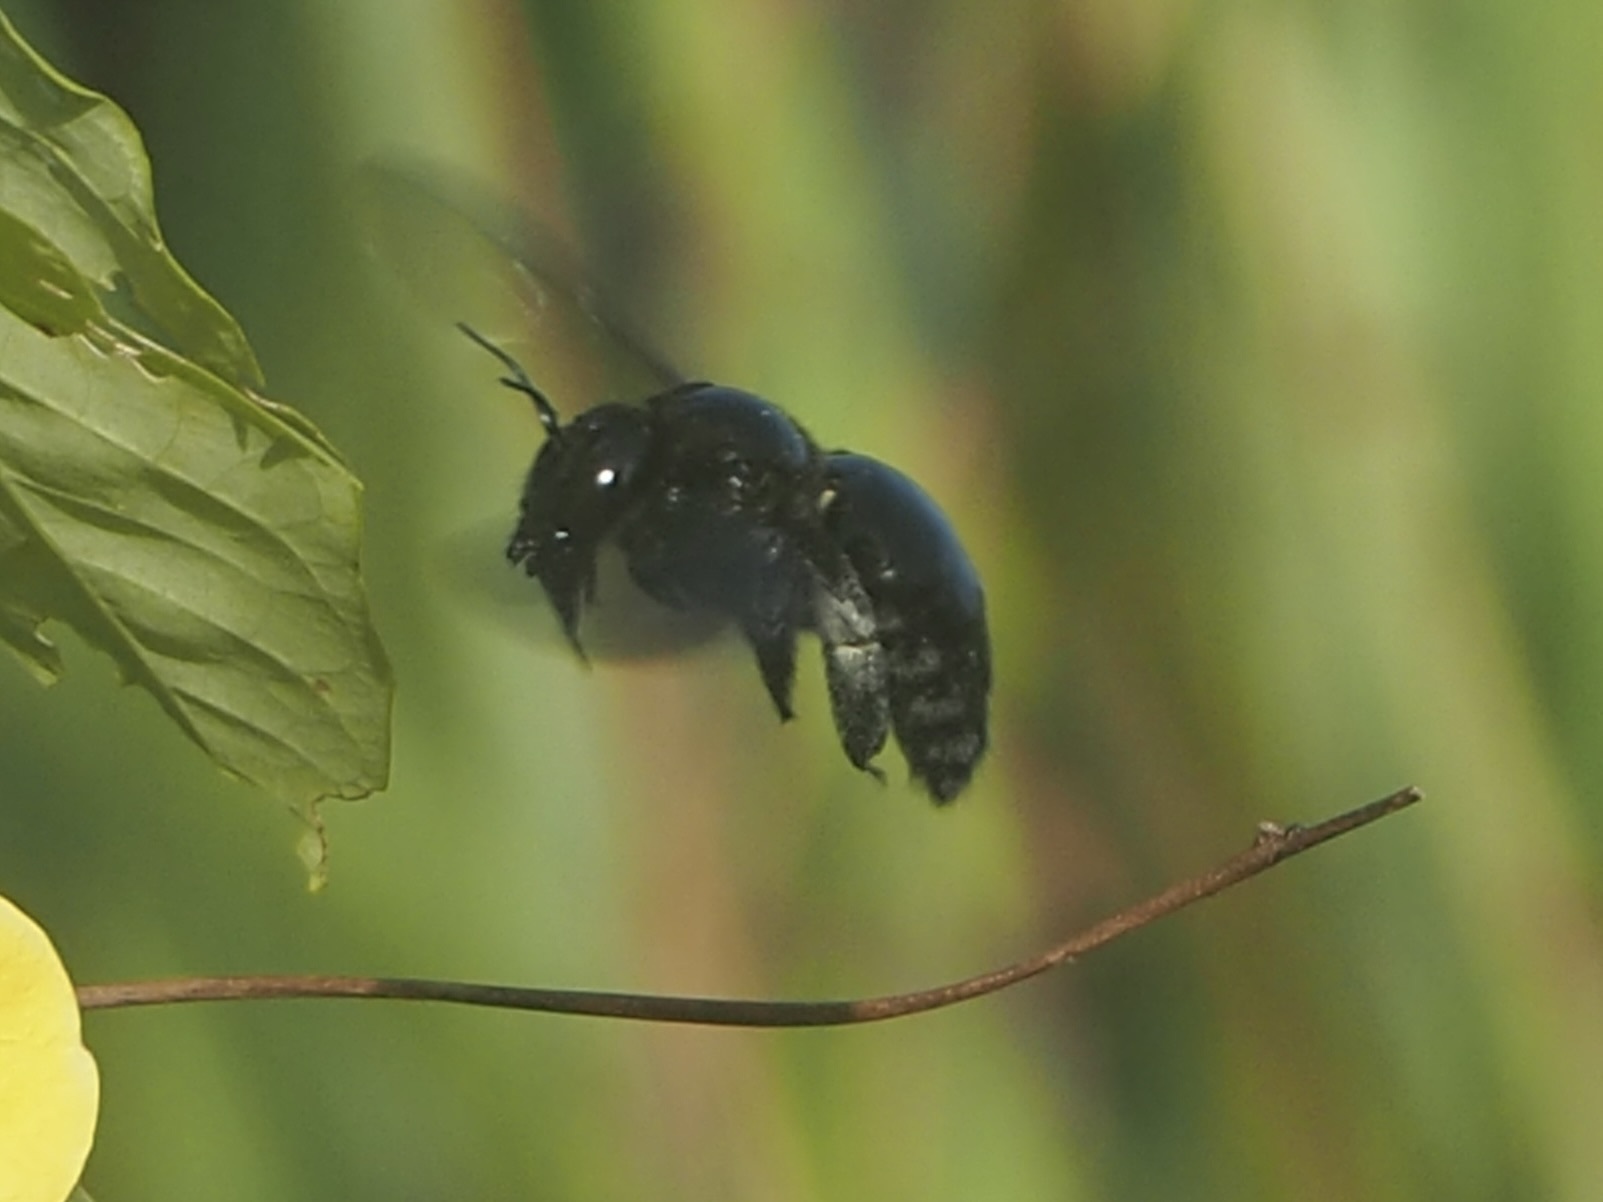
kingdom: Animalia
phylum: Arthropoda
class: Insecta
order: Hymenoptera
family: Apidae
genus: Xylocopa
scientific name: Xylocopa frontalis
